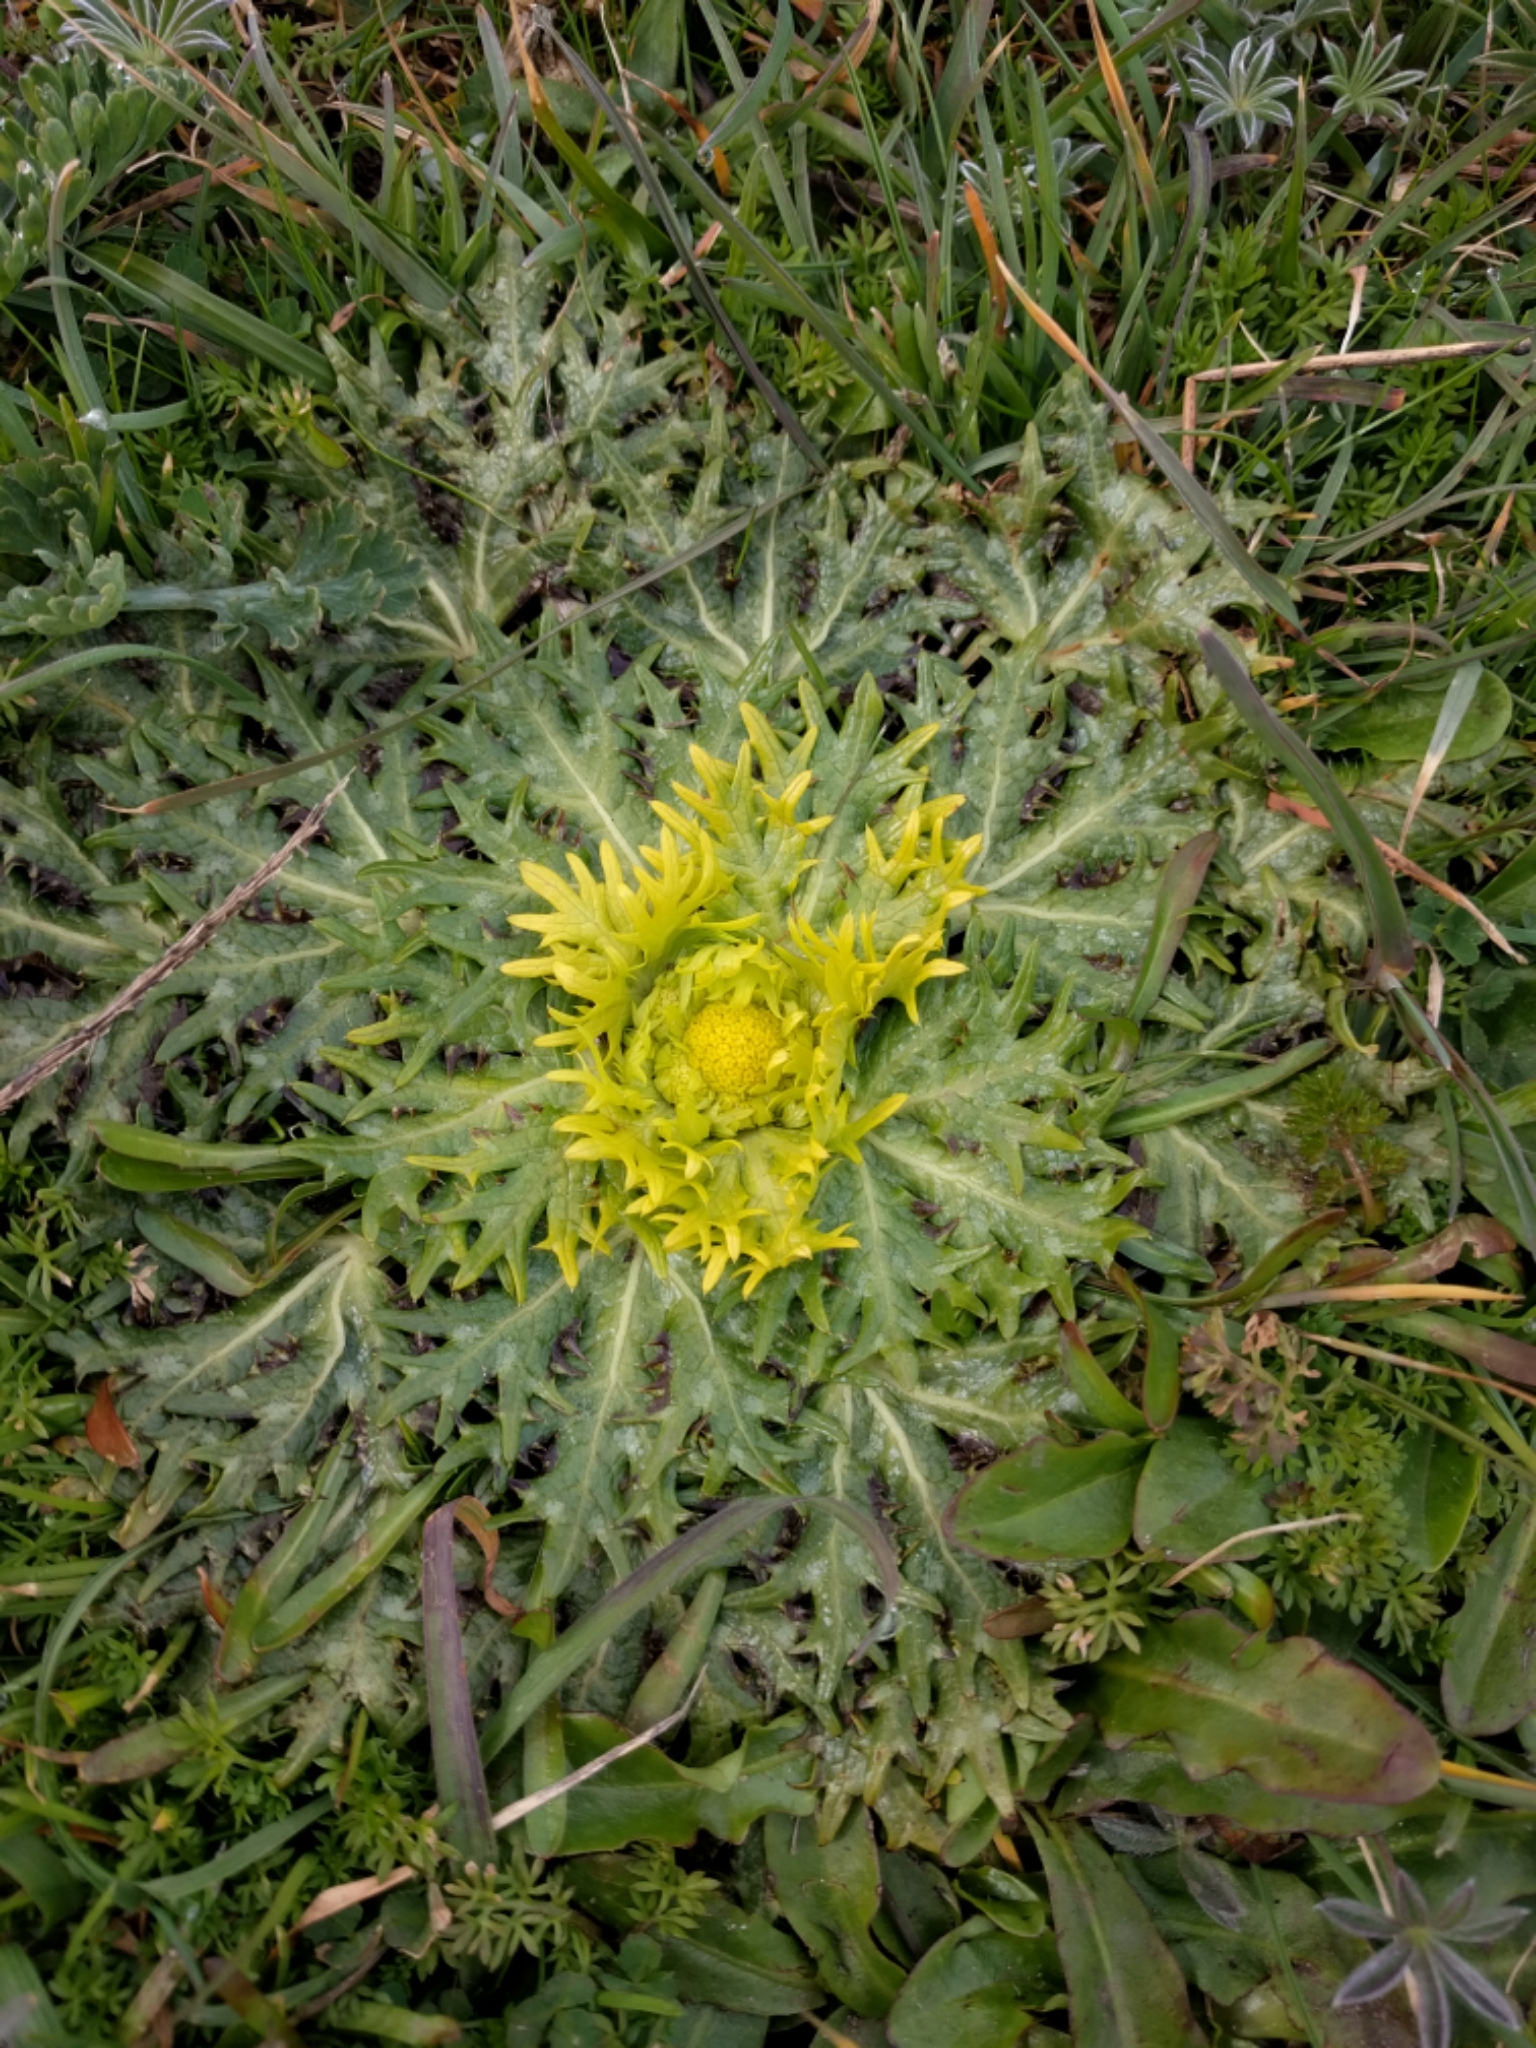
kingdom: Plantae
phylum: Tracheophyta
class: Magnoliopsida
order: Apiales
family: Apiaceae
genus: Sanicula
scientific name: Sanicula arctopoides
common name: Footsteps-of-spring
